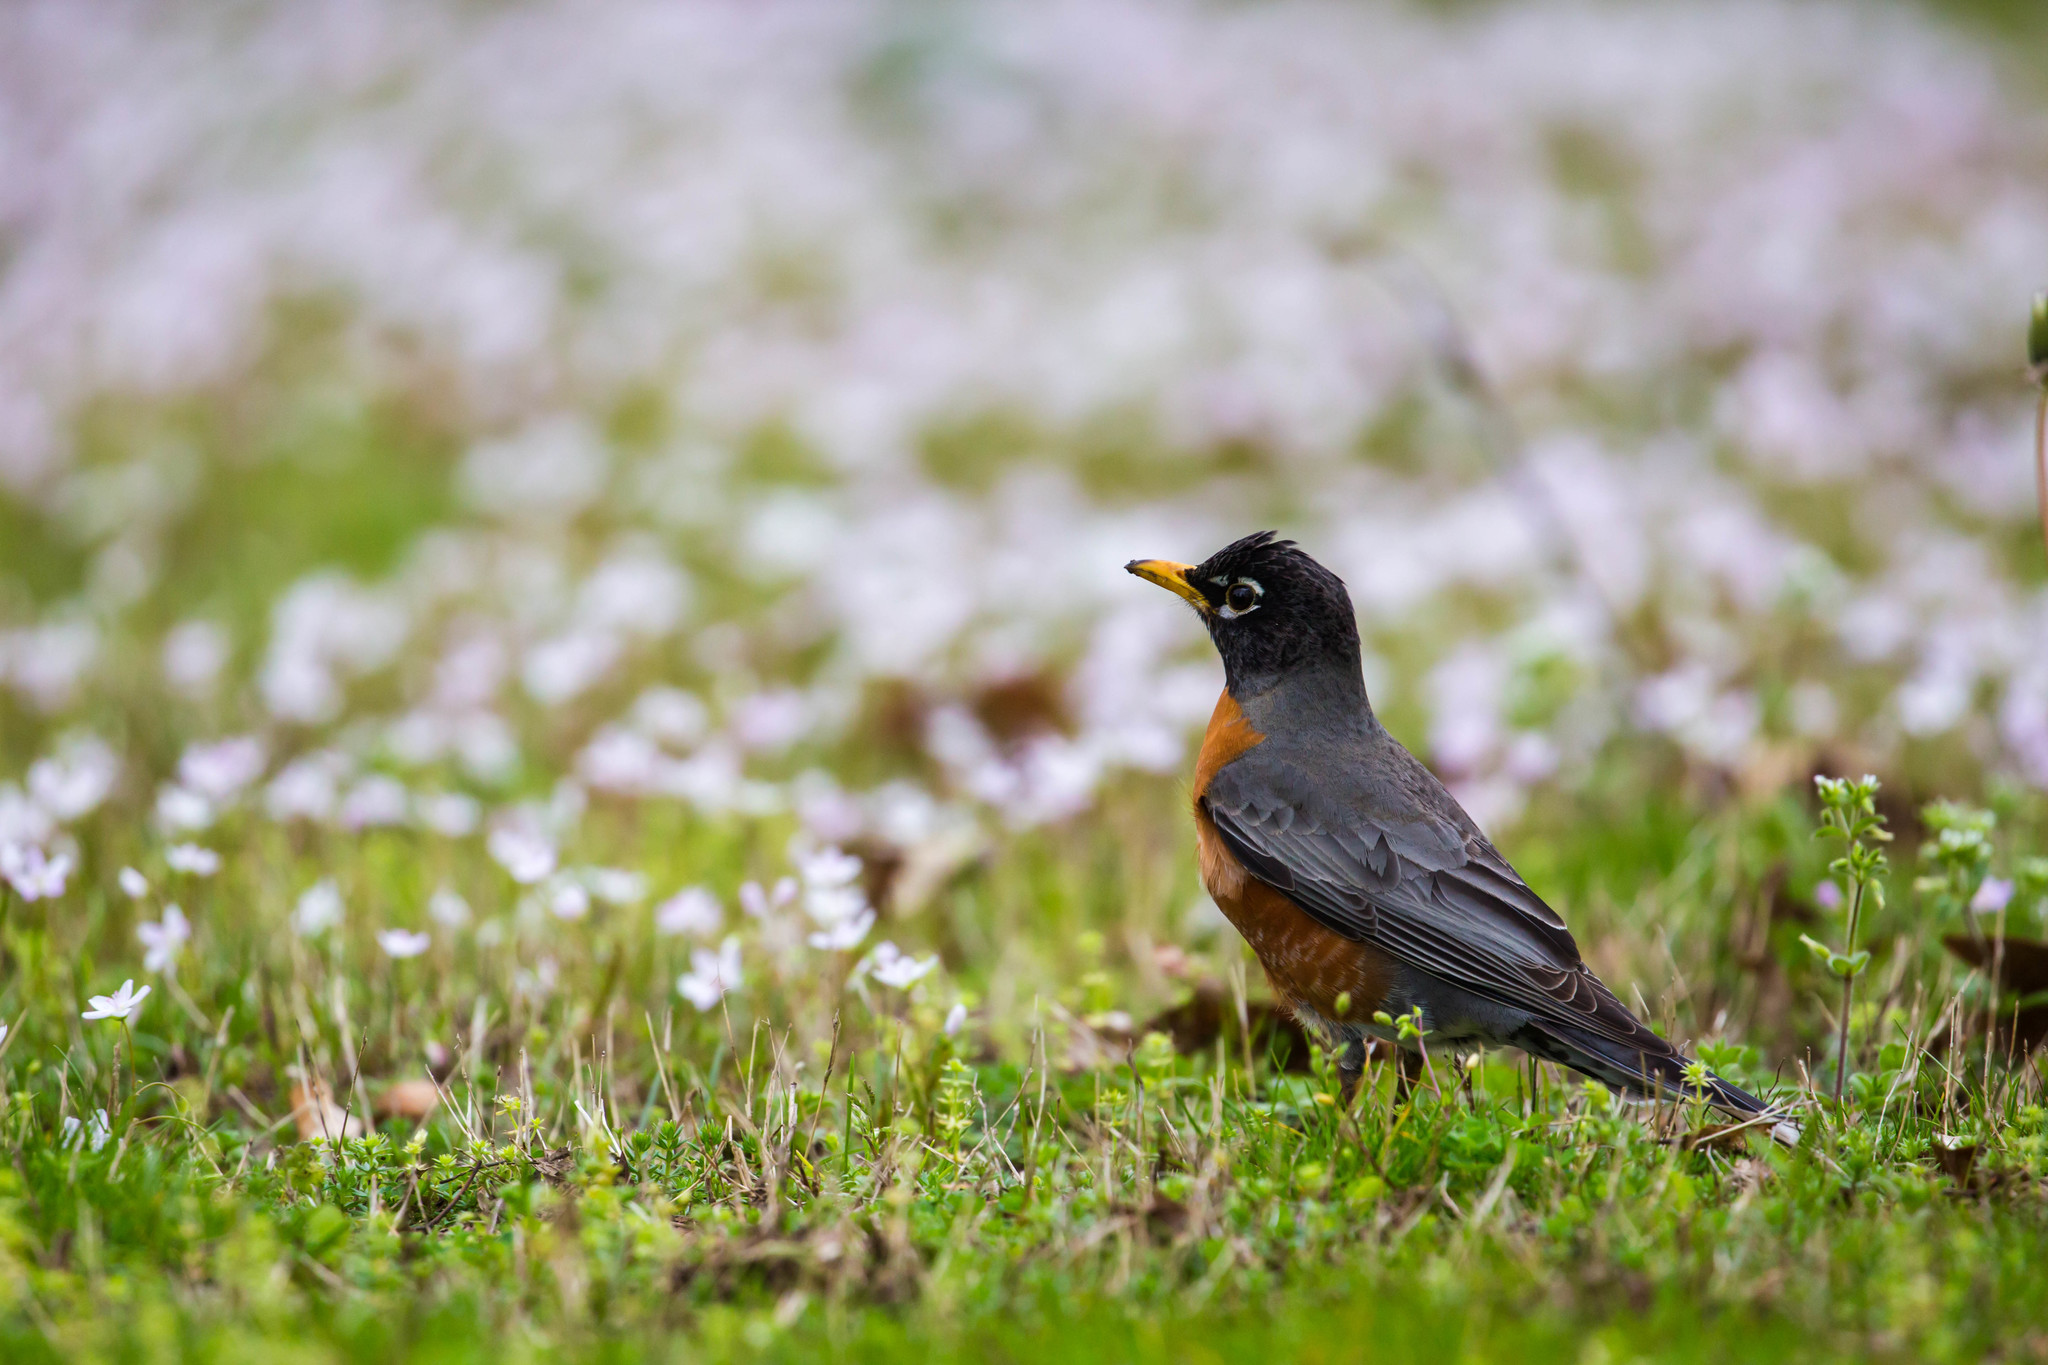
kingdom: Animalia
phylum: Chordata
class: Aves
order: Passeriformes
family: Turdidae
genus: Turdus
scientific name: Turdus migratorius
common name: American robin
